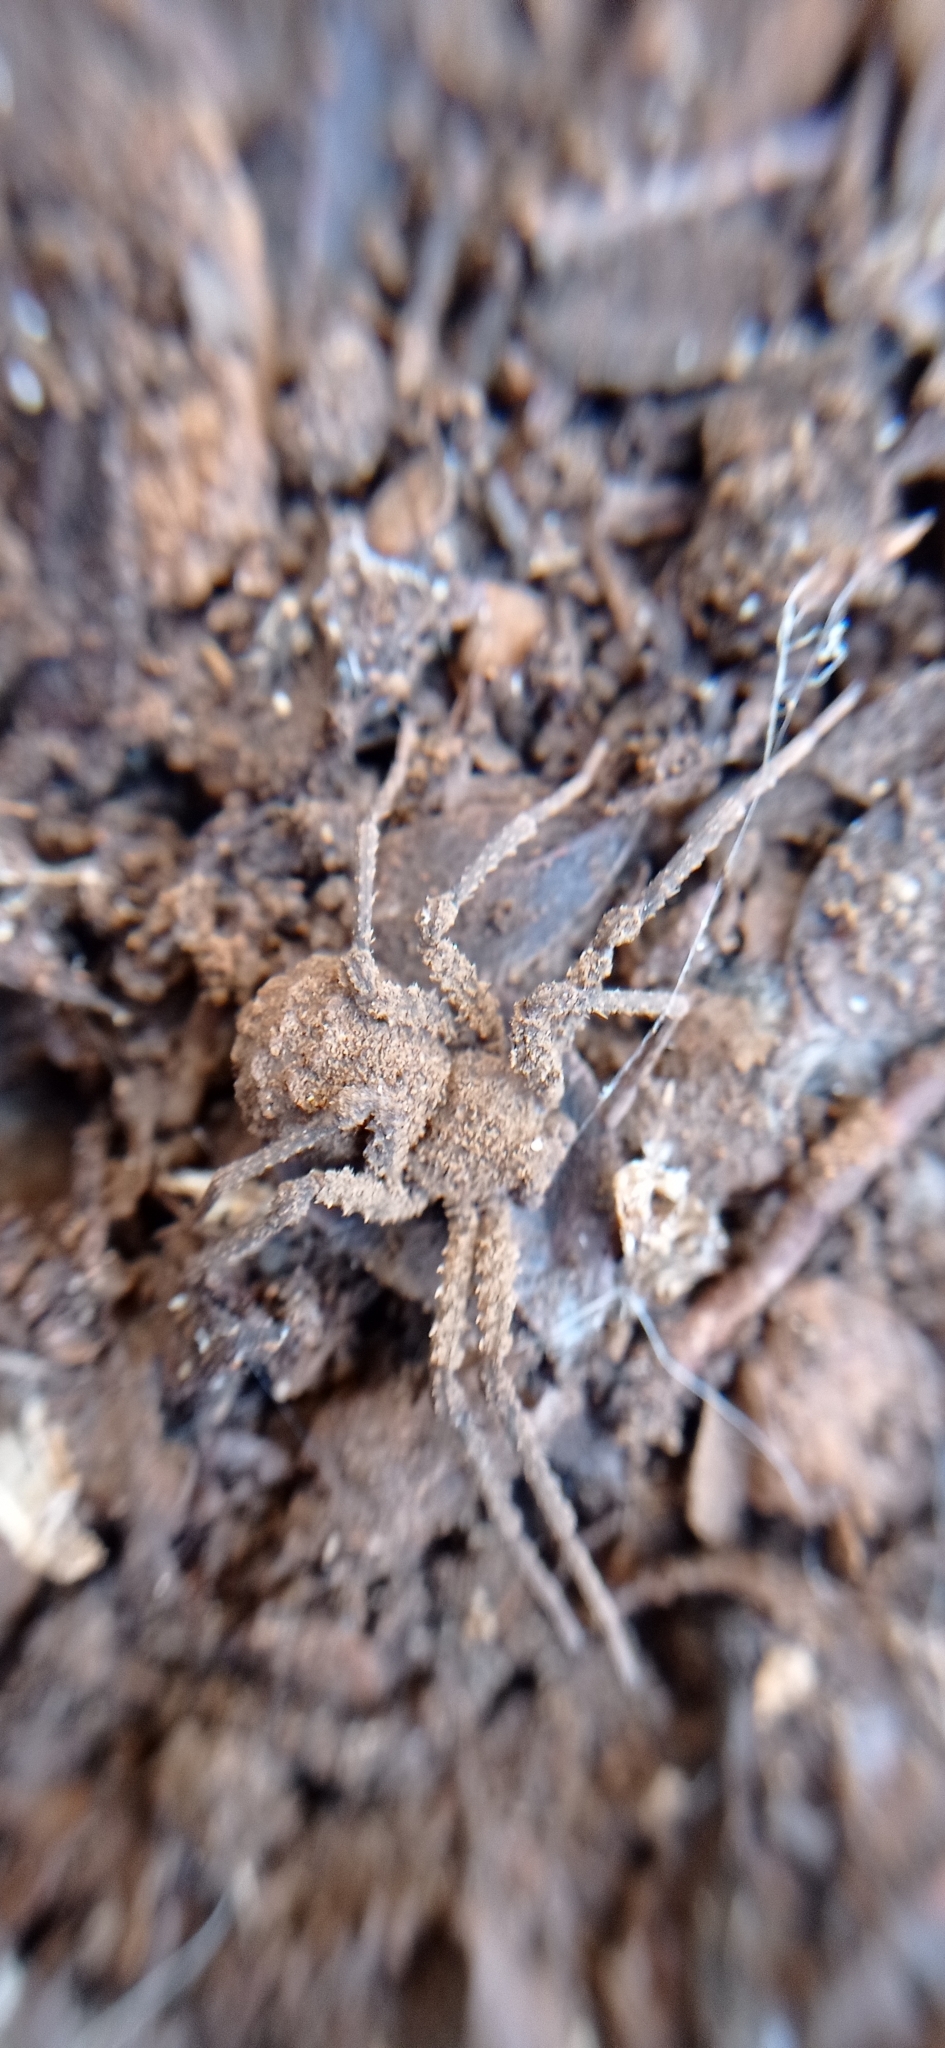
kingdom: Animalia
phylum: Arthropoda
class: Arachnida
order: Araneae
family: Sicariidae
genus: Sicarius
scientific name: Sicarius fumosus
